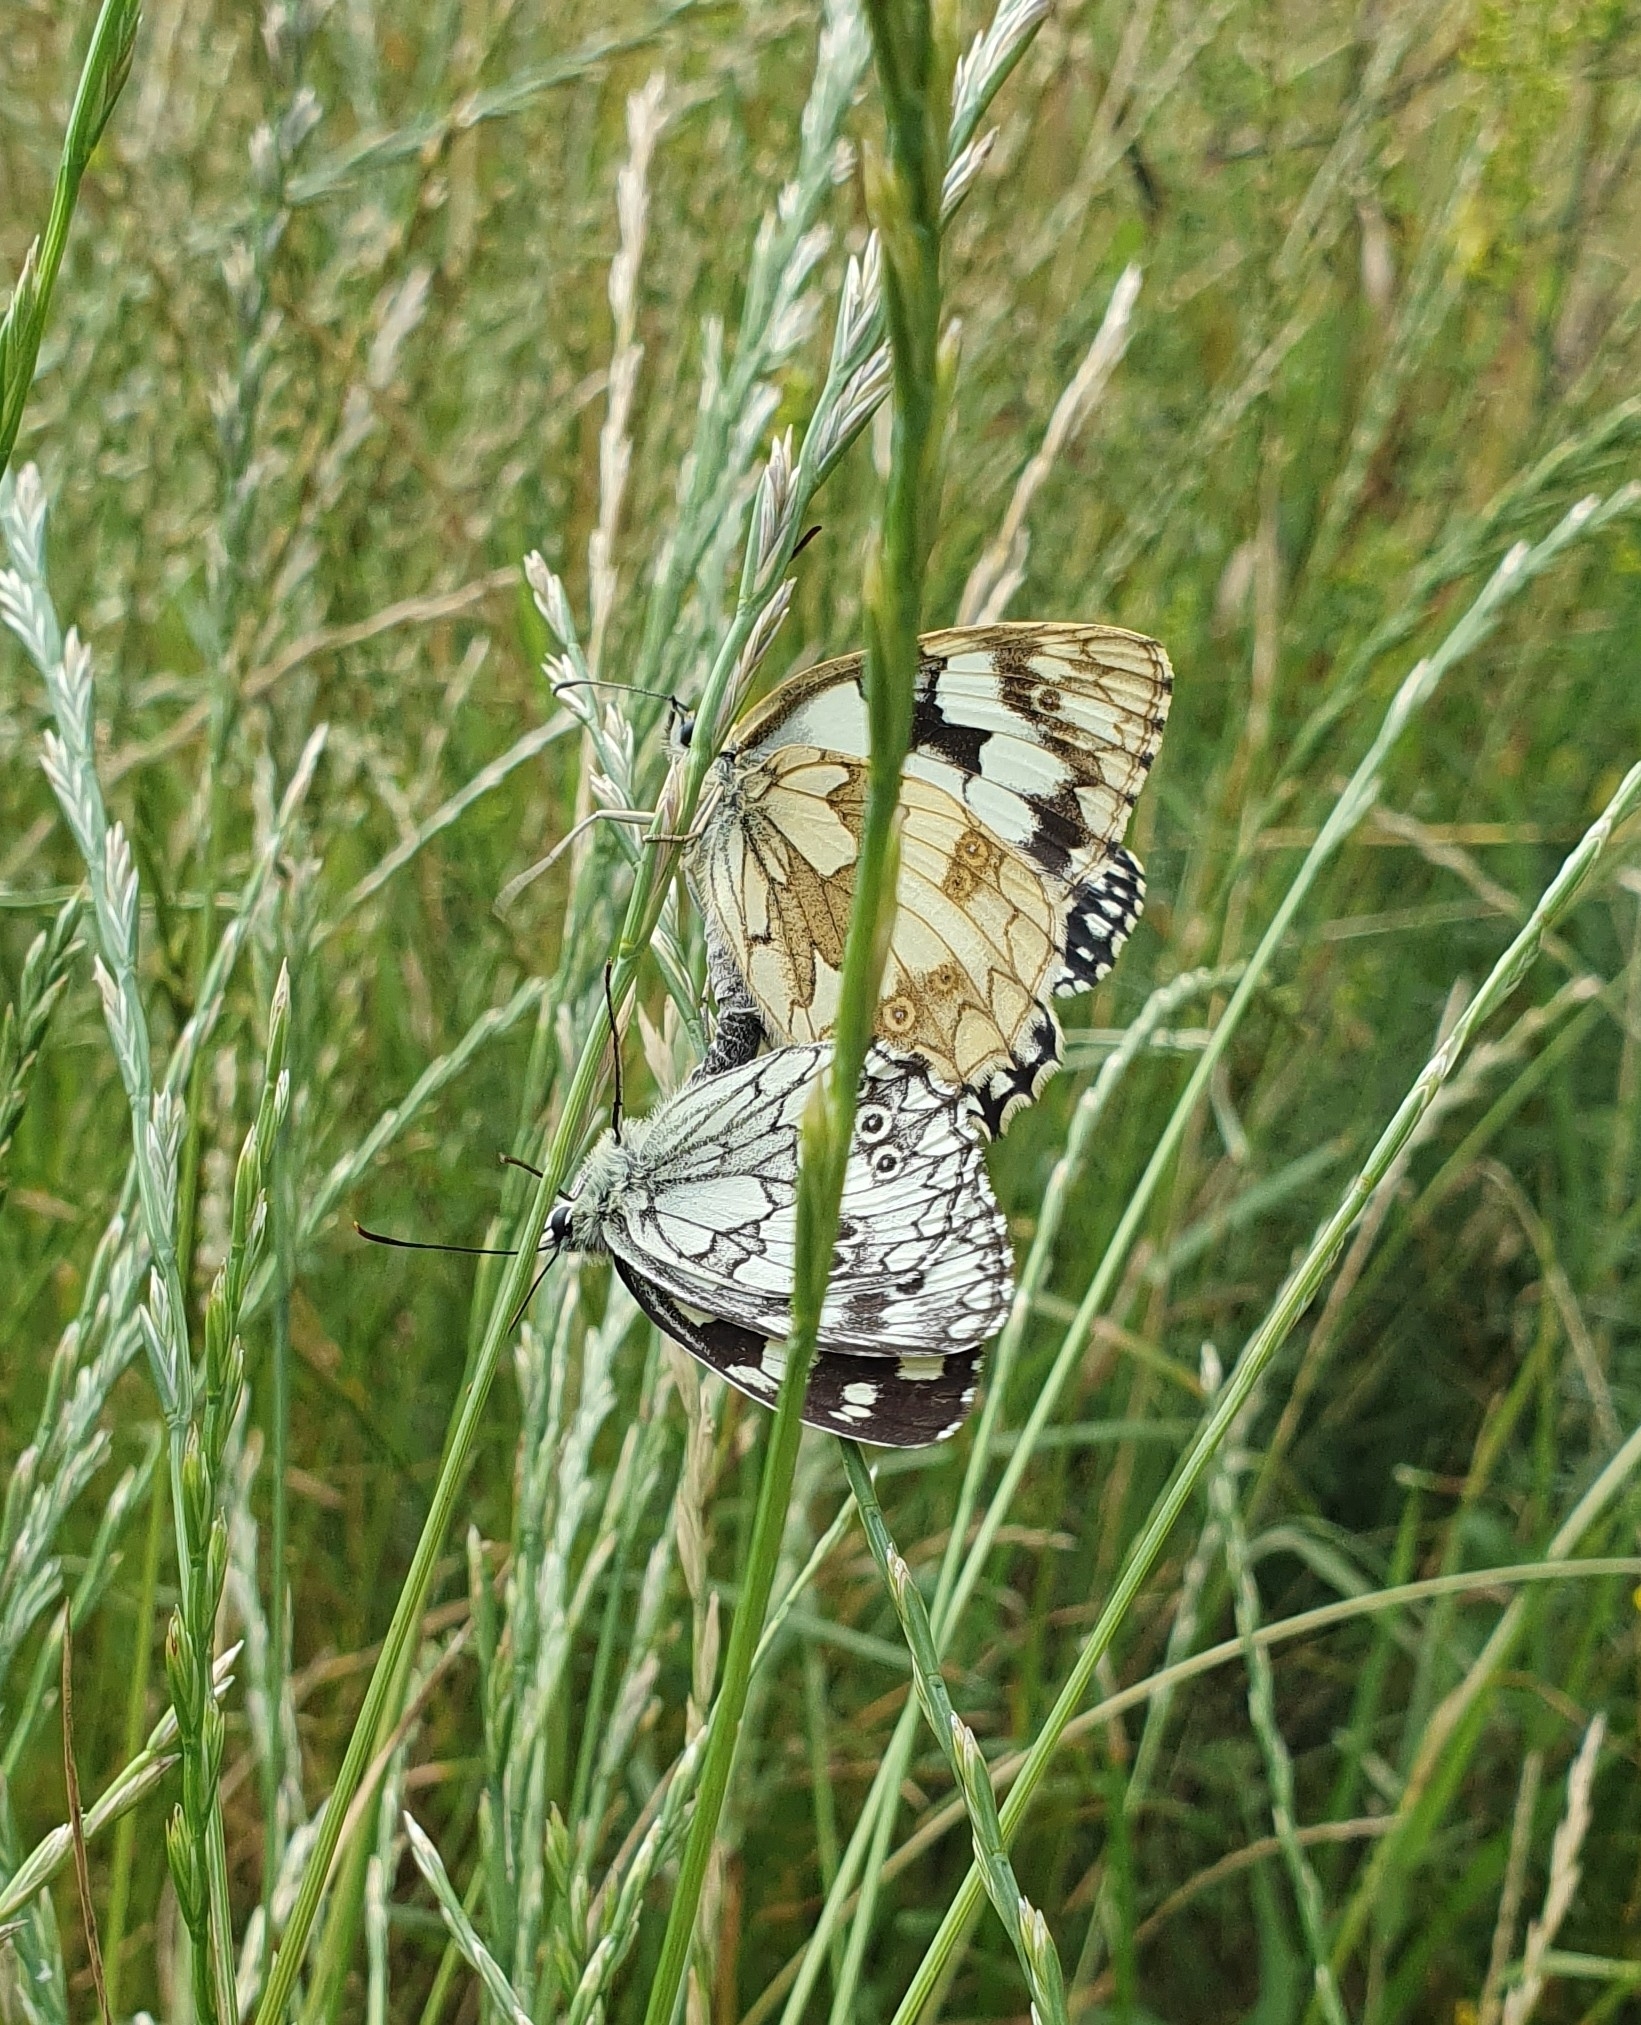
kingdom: Animalia
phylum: Arthropoda
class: Insecta
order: Lepidoptera
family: Nymphalidae
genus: Melanargia
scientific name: Melanargia galathea
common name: Marbled white
